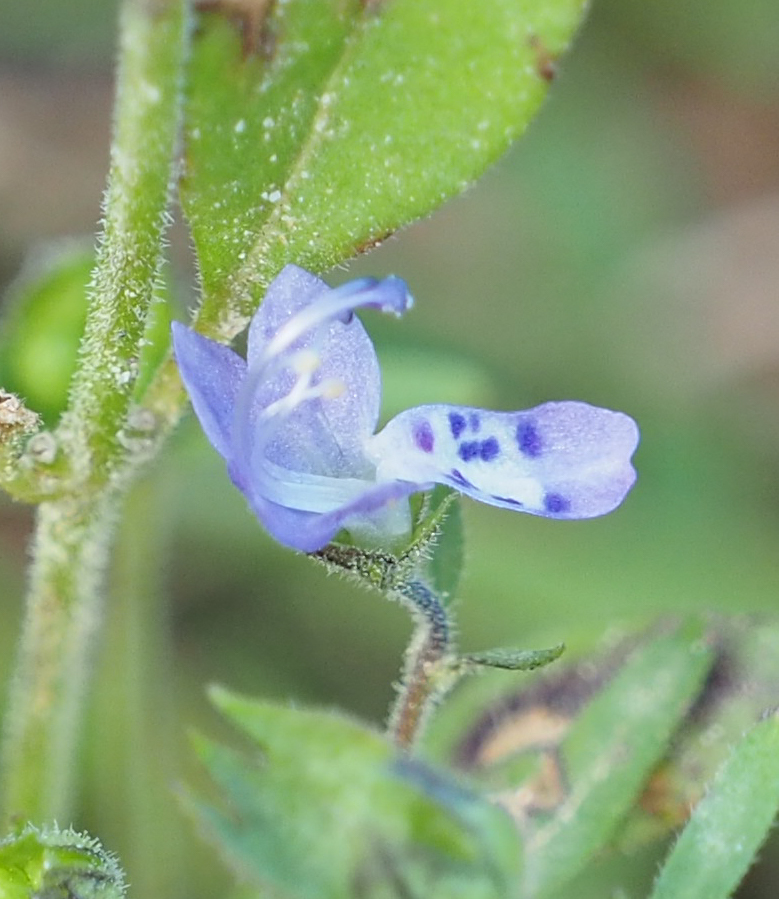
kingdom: Plantae
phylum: Tracheophyta
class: Magnoliopsida
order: Lamiales
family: Lamiaceae
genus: Trichostema
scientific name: Trichostema dichotomum
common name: Bastard pennyroyal
